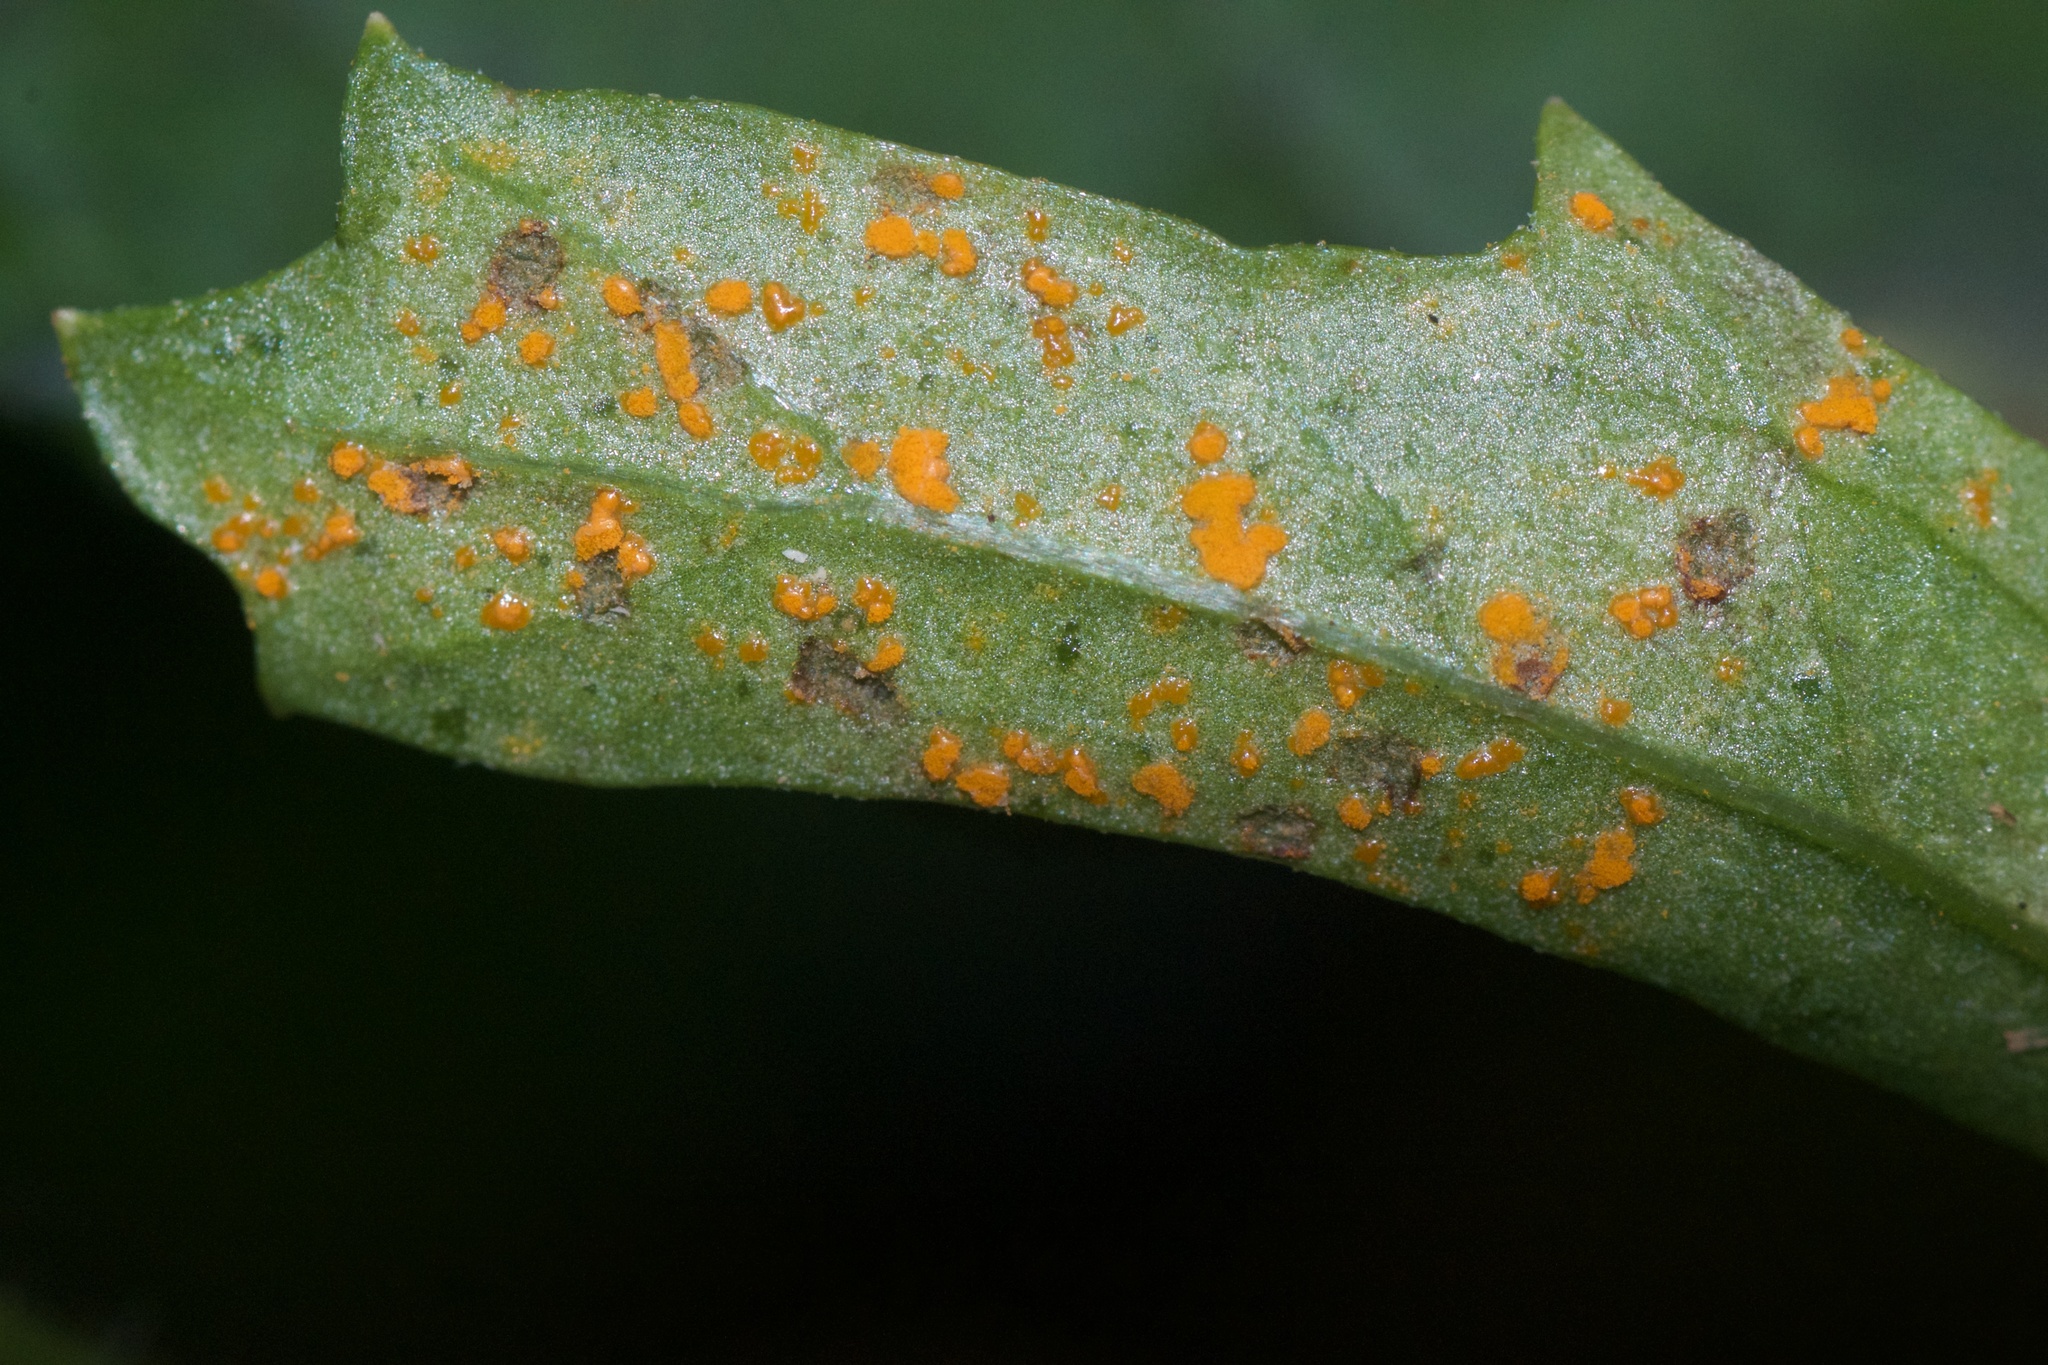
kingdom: Fungi
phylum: Basidiomycota
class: Pucciniomycetes
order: Pucciniales
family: Coleosporiaceae
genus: Coleosporium
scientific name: Coleosporium tussilaginis
